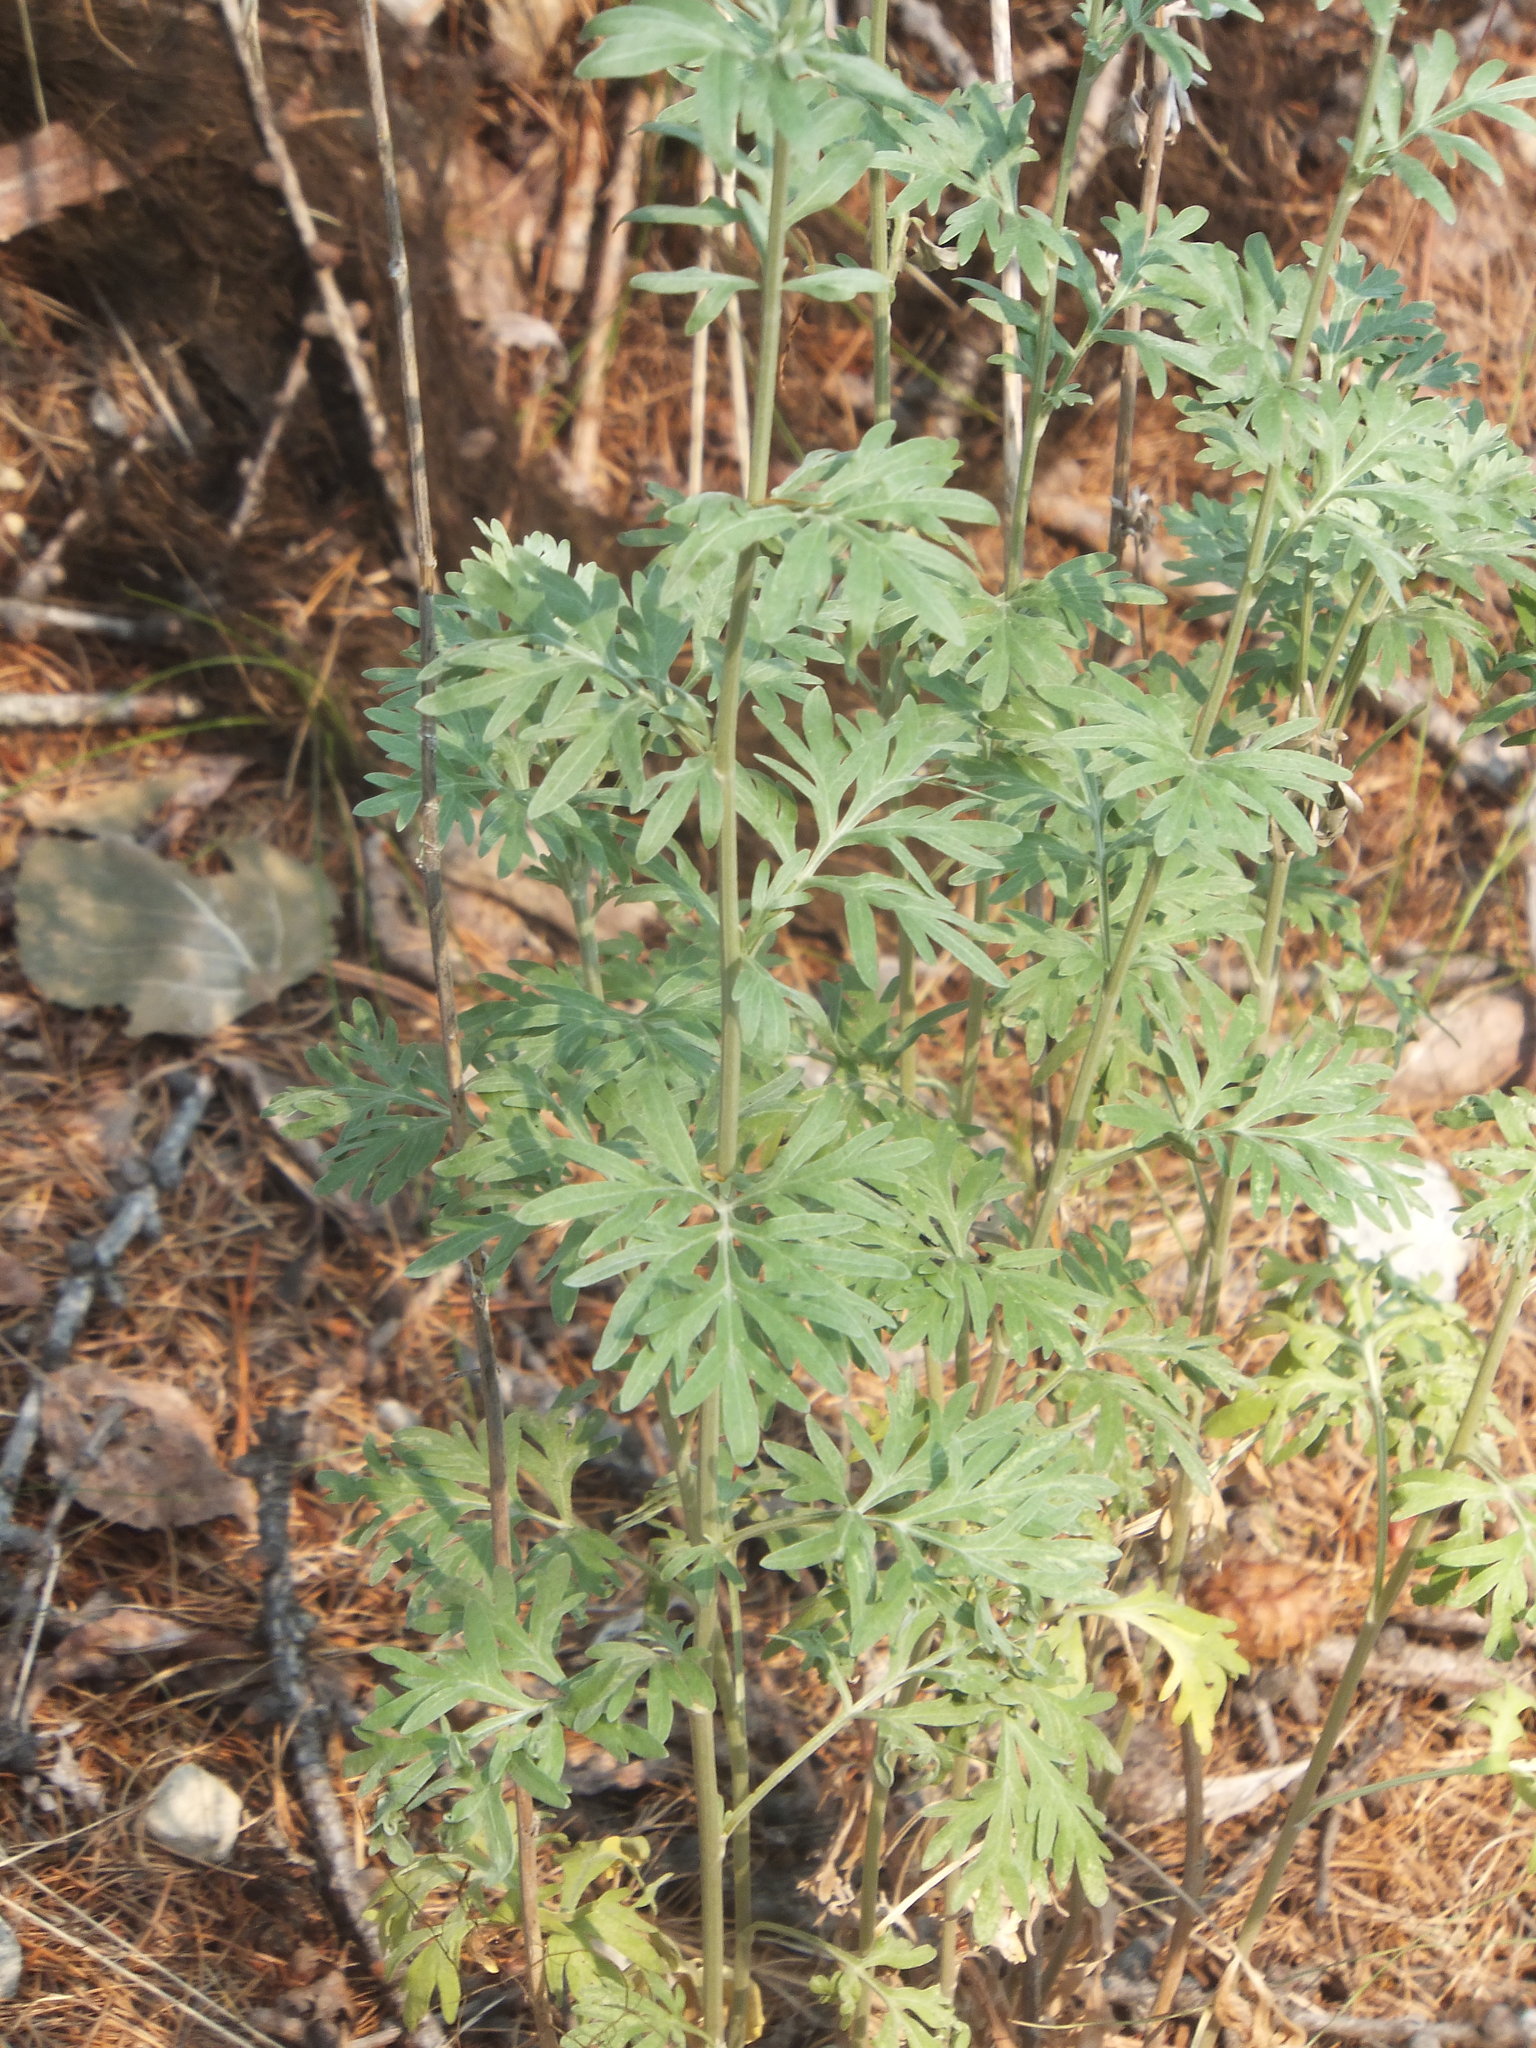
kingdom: Plantae
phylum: Tracheophyta
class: Magnoliopsida
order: Asterales
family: Asteraceae
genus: Artemisia
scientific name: Artemisia absinthium
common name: Wormwood
